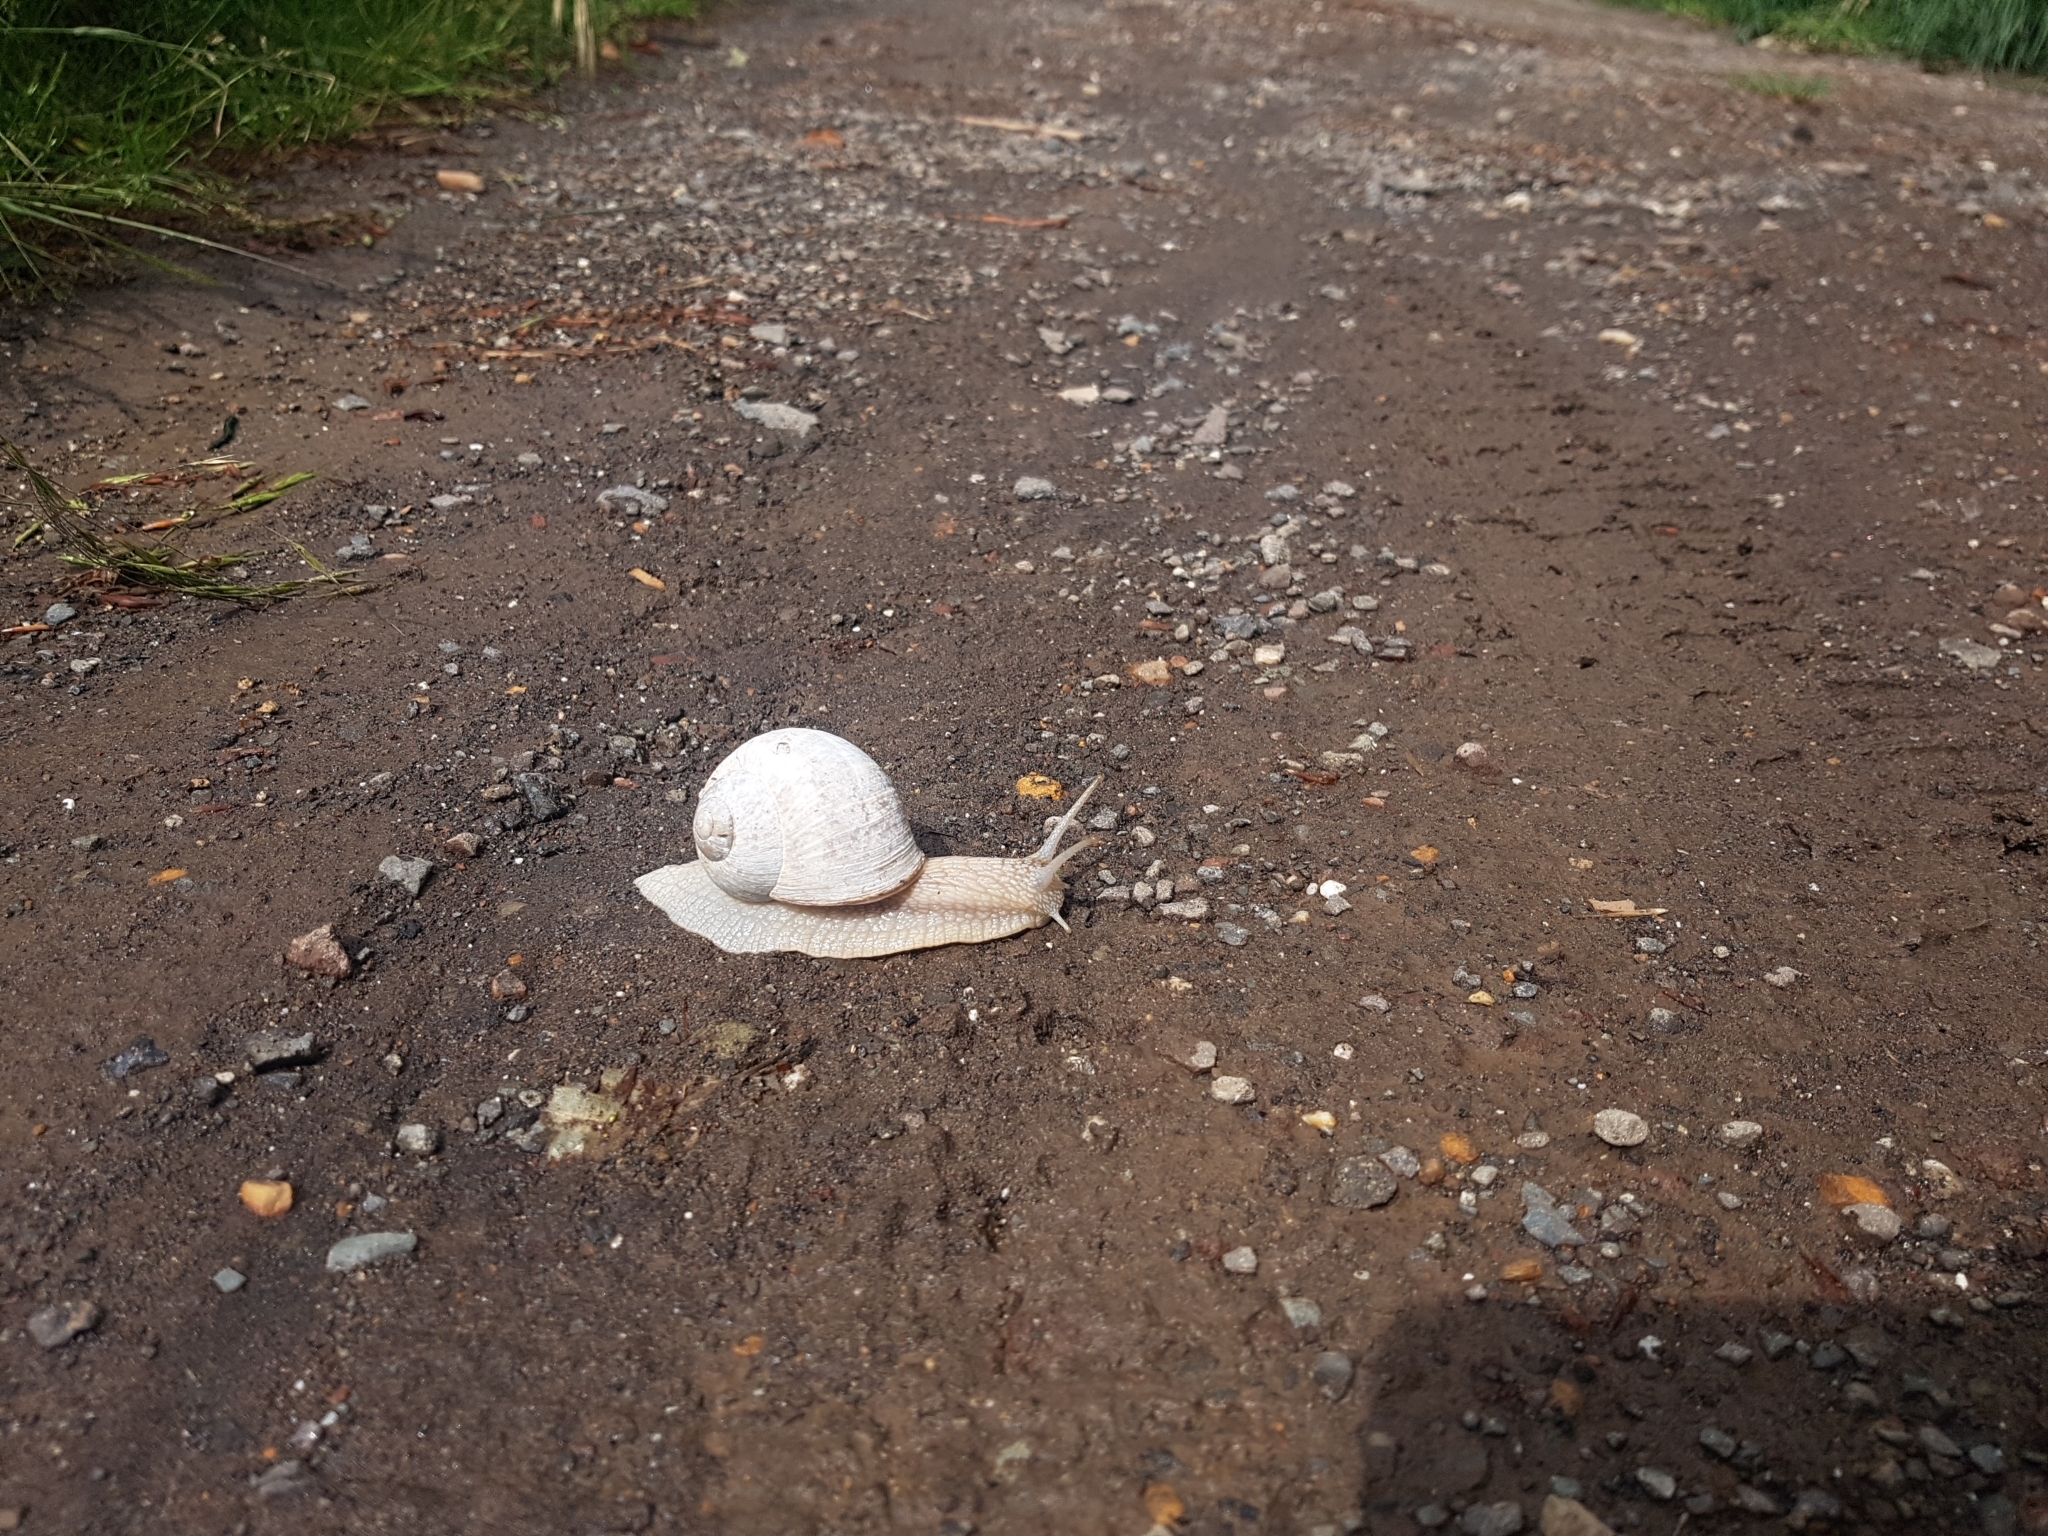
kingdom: Animalia
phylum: Mollusca
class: Gastropoda
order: Stylommatophora
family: Helicidae
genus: Helix
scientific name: Helix pomatia
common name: Roman snail
